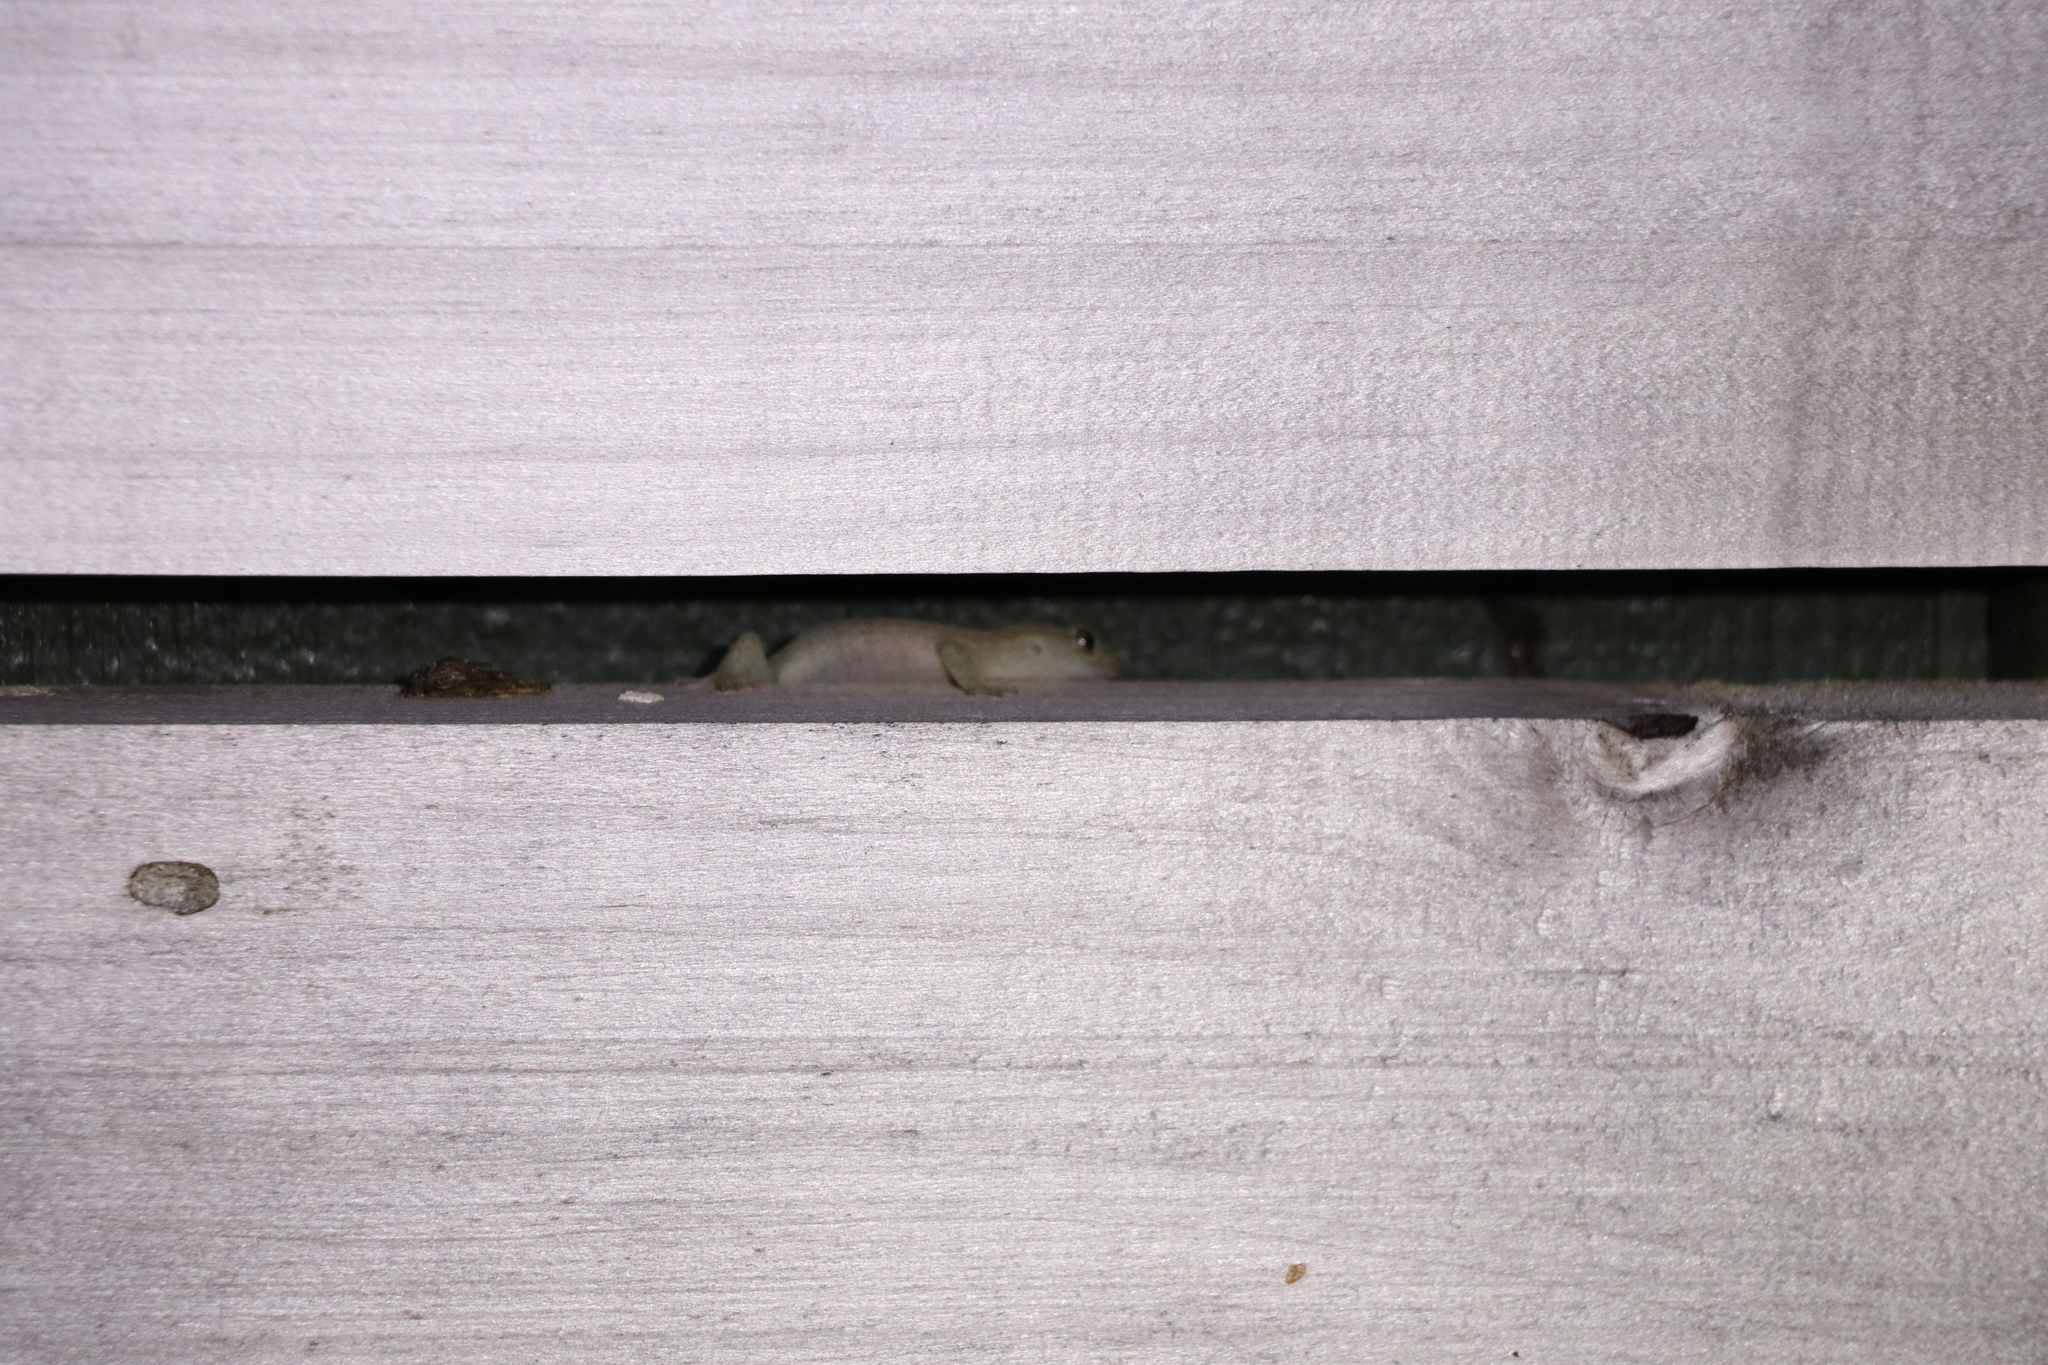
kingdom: Animalia
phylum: Chordata
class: Squamata
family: Diplodactylidae
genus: Woodworthia
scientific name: Woodworthia maculata
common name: Raukawa gecko
